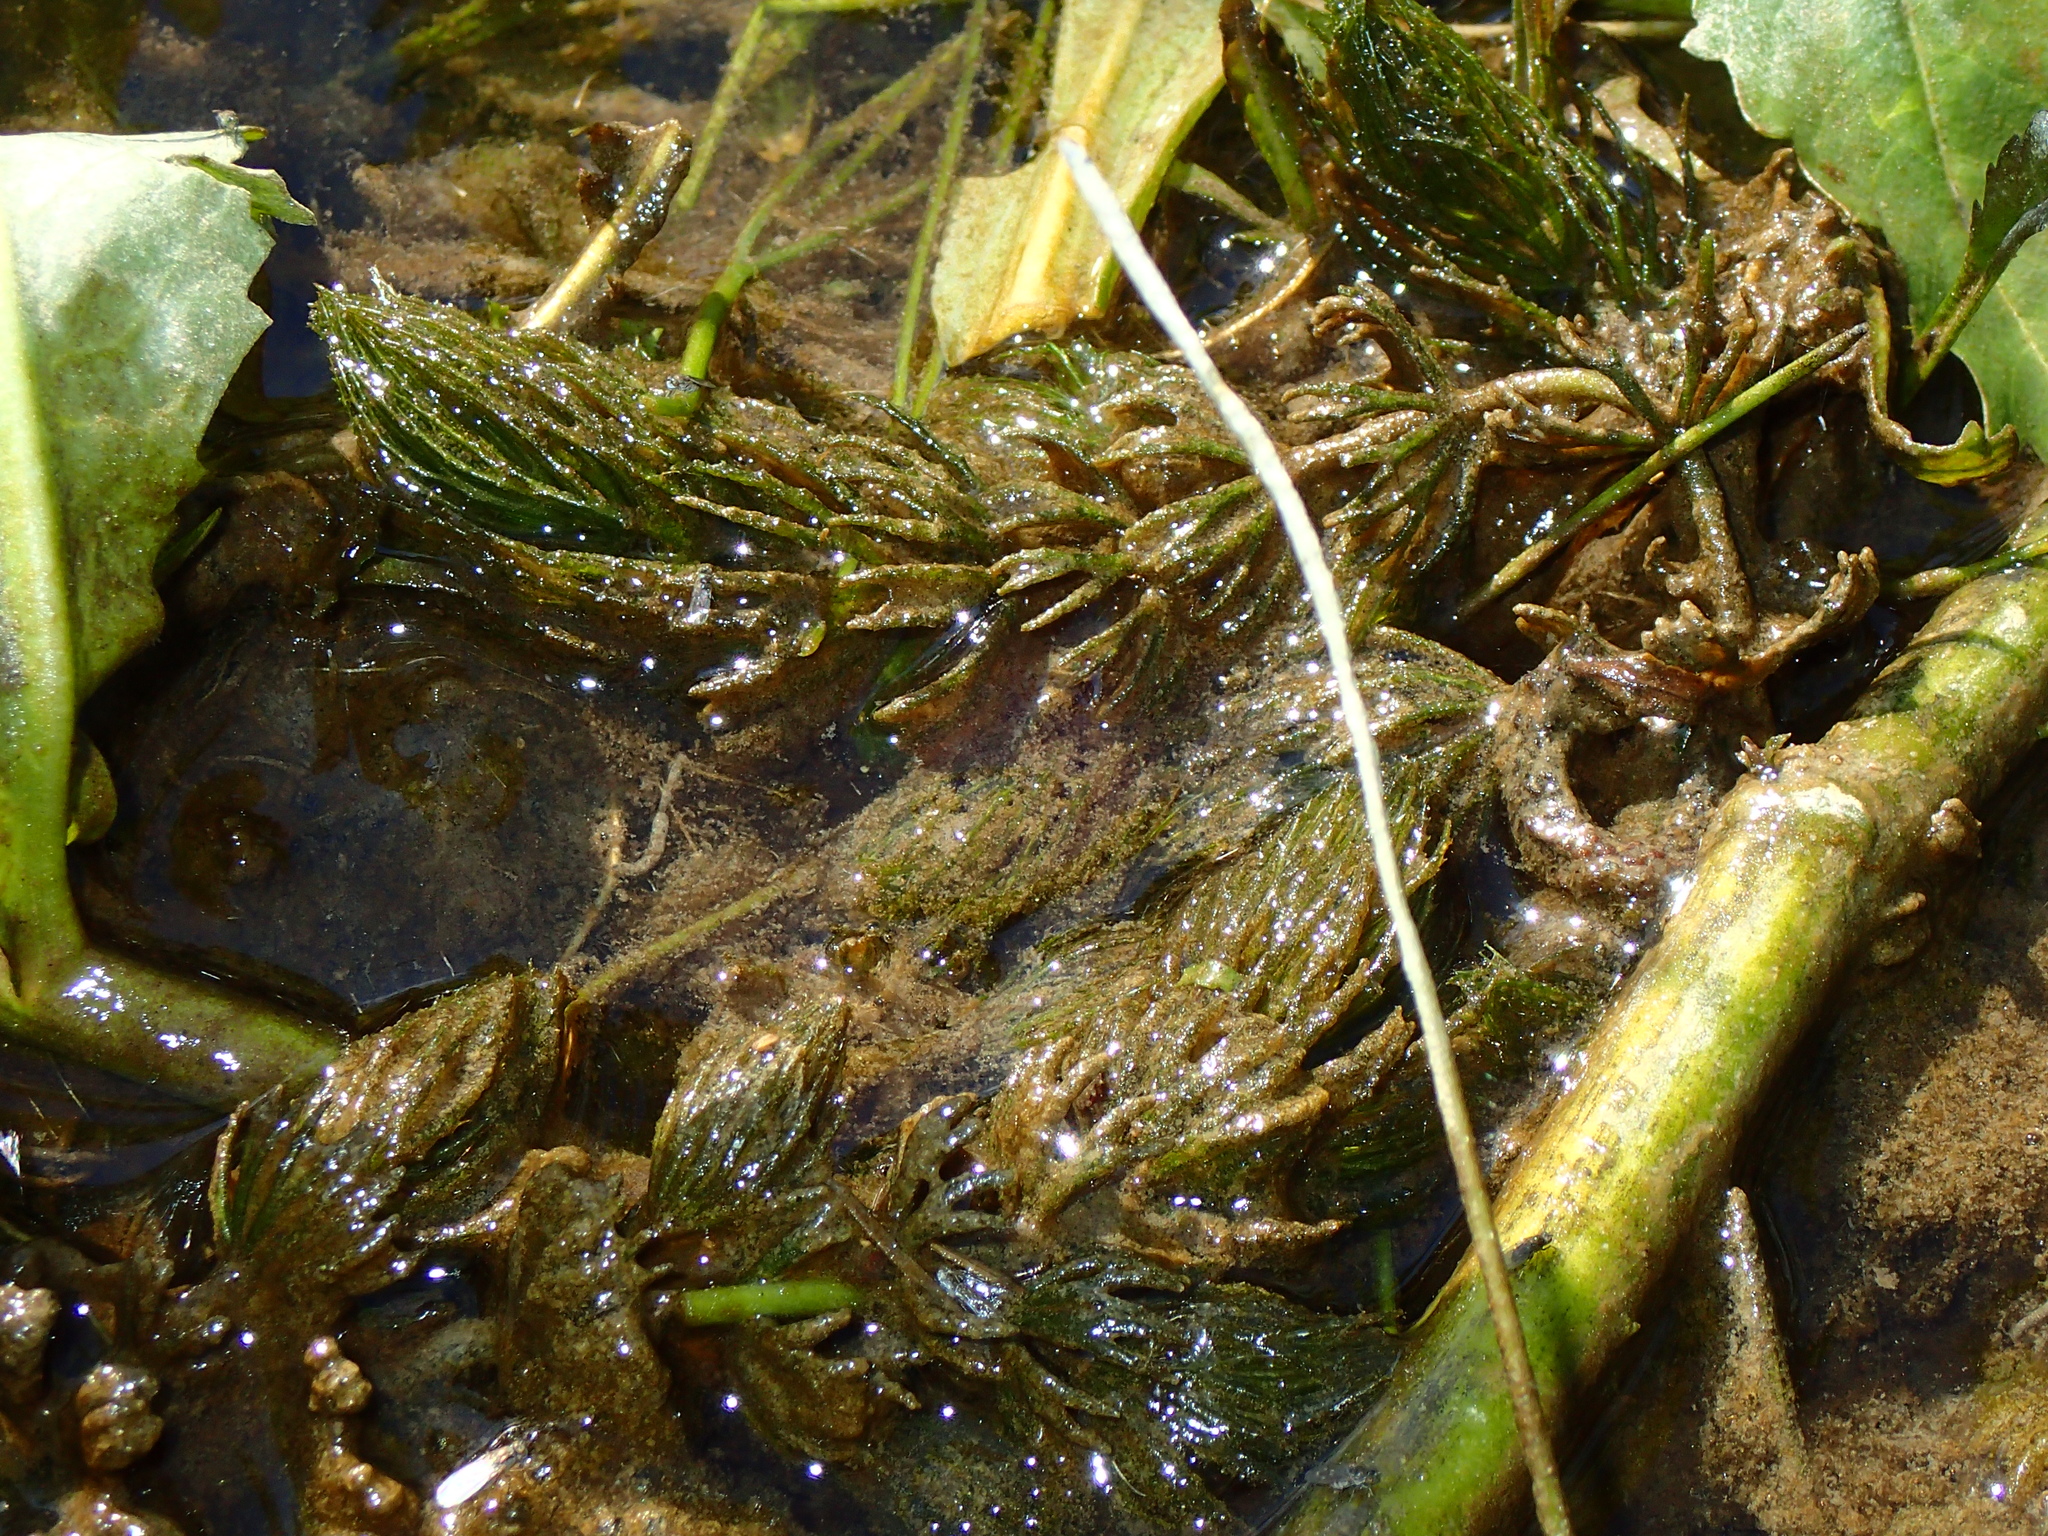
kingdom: Plantae
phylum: Tracheophyta
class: Magnoliopsida
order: Ceratophyllales
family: Ceratophyllaceae
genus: Ceratophyllum
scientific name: Ceratophyllum demersum
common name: Rigid hornwort
